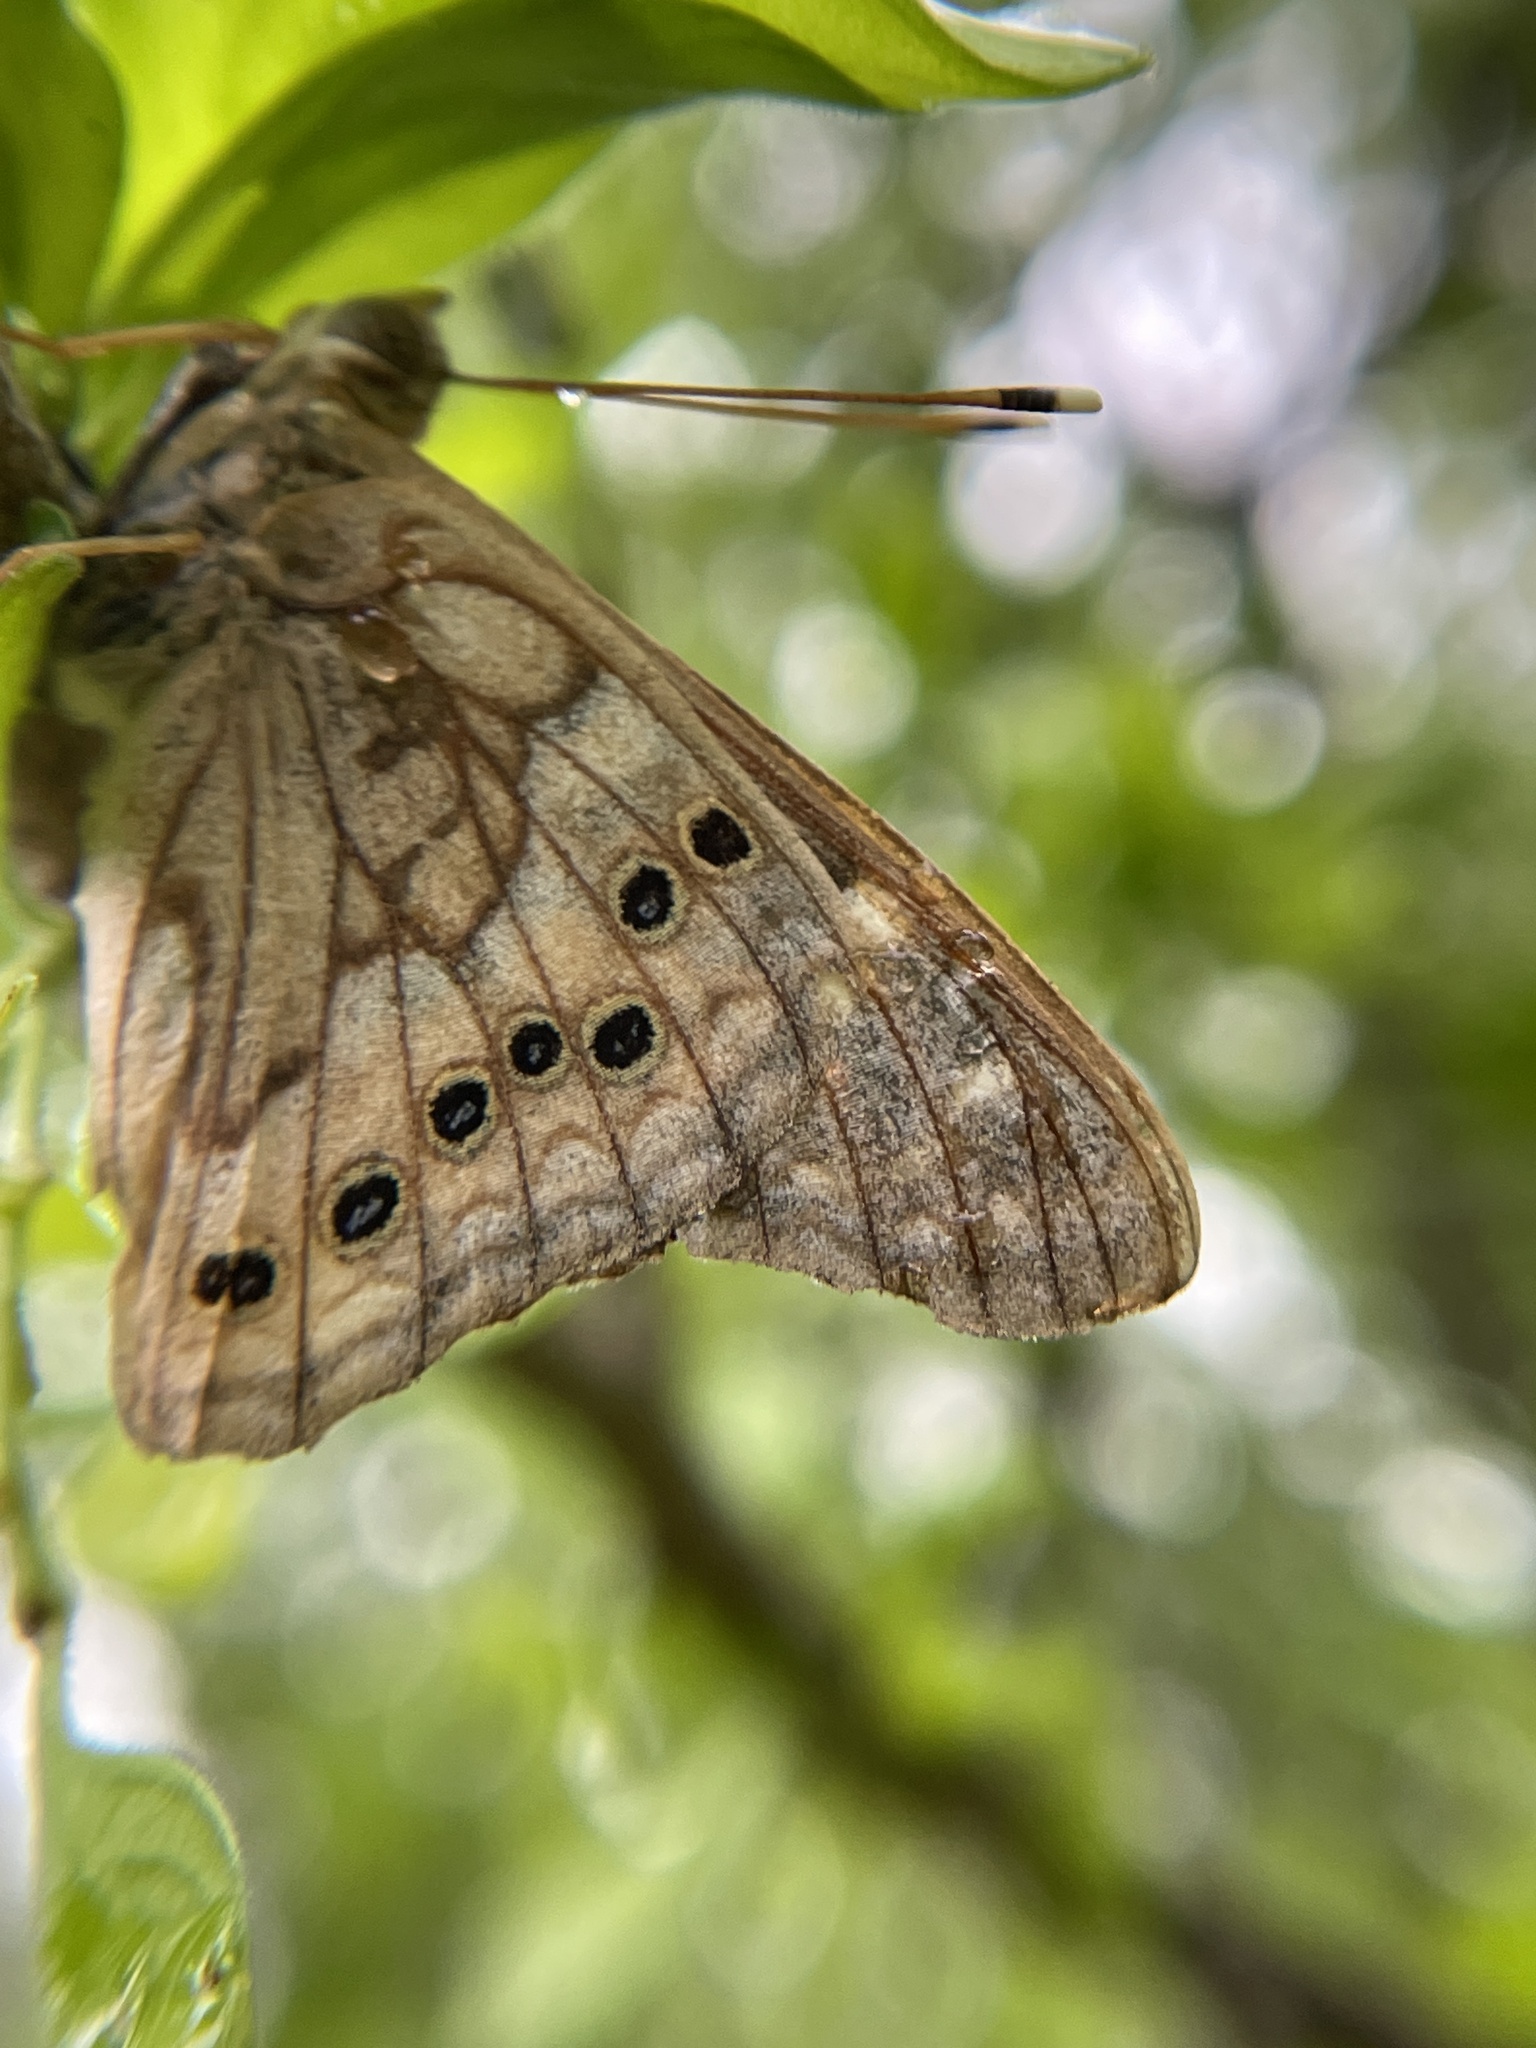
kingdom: Animalia
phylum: Arthropoda
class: Insecta
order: Lepidoptera
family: Nymphalidae
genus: Asterocampa
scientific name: Asterocampa clyton
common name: Tawny emperor
